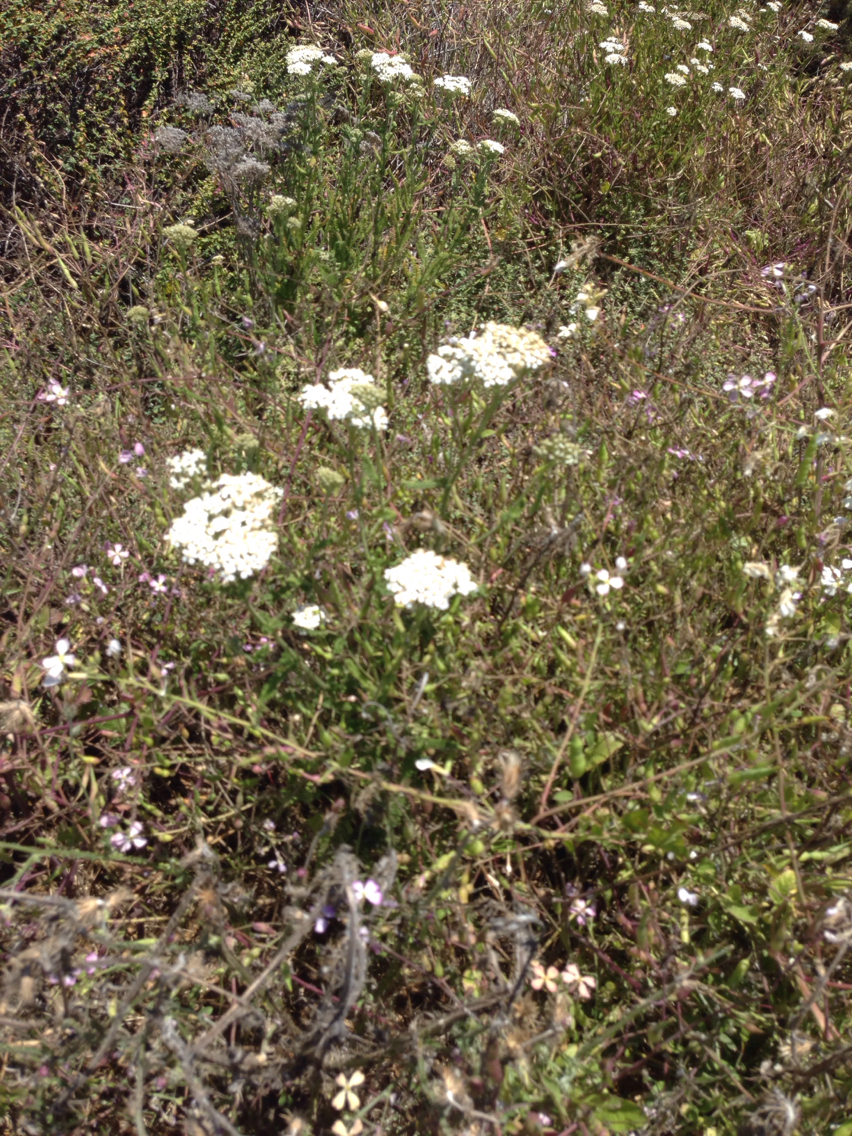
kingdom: Plantae
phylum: Tracheophyta
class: Magnoliopsida
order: Asterales
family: Asteraceae
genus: Achillea
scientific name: Achillea millefolium
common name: Yarrow
